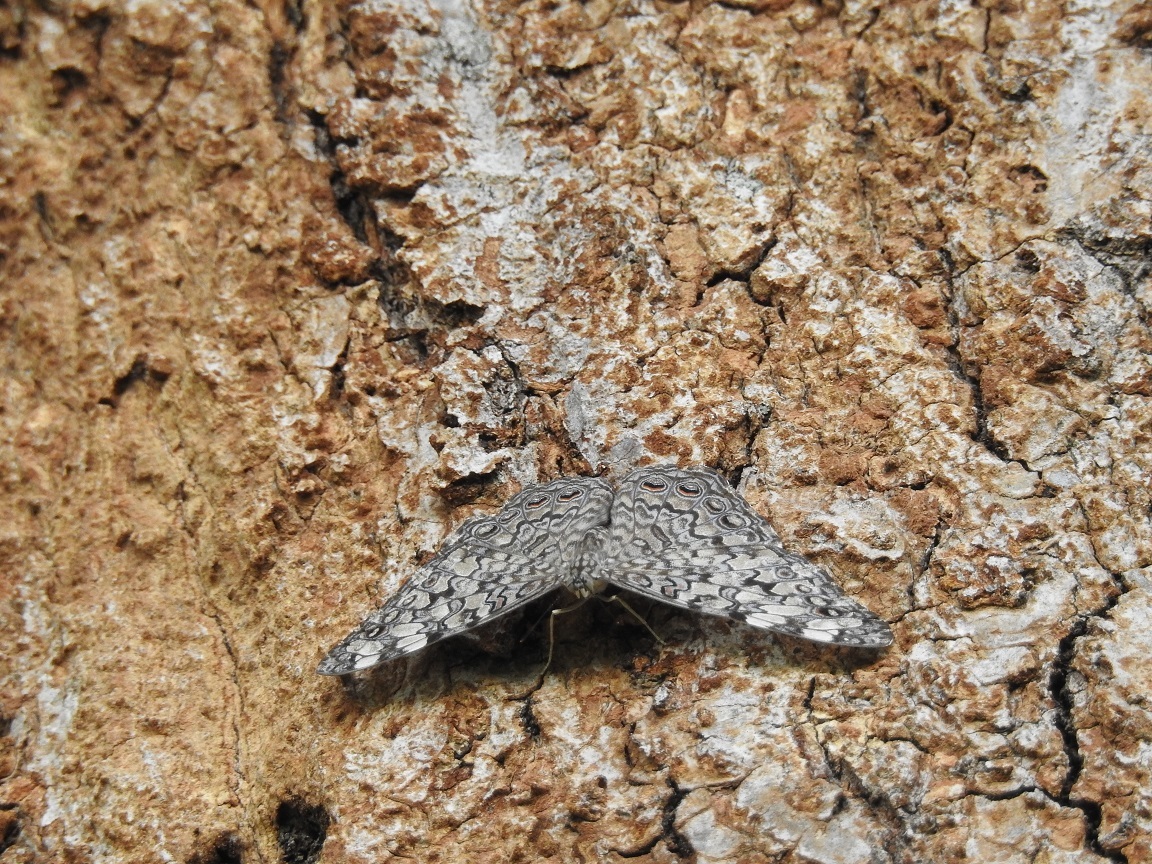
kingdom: Animalia
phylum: Arthropoda
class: Insecta
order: Lepidoptera
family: Nymphalidae
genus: Hamadryas
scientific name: Hamadryas februa
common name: Gray cracker
